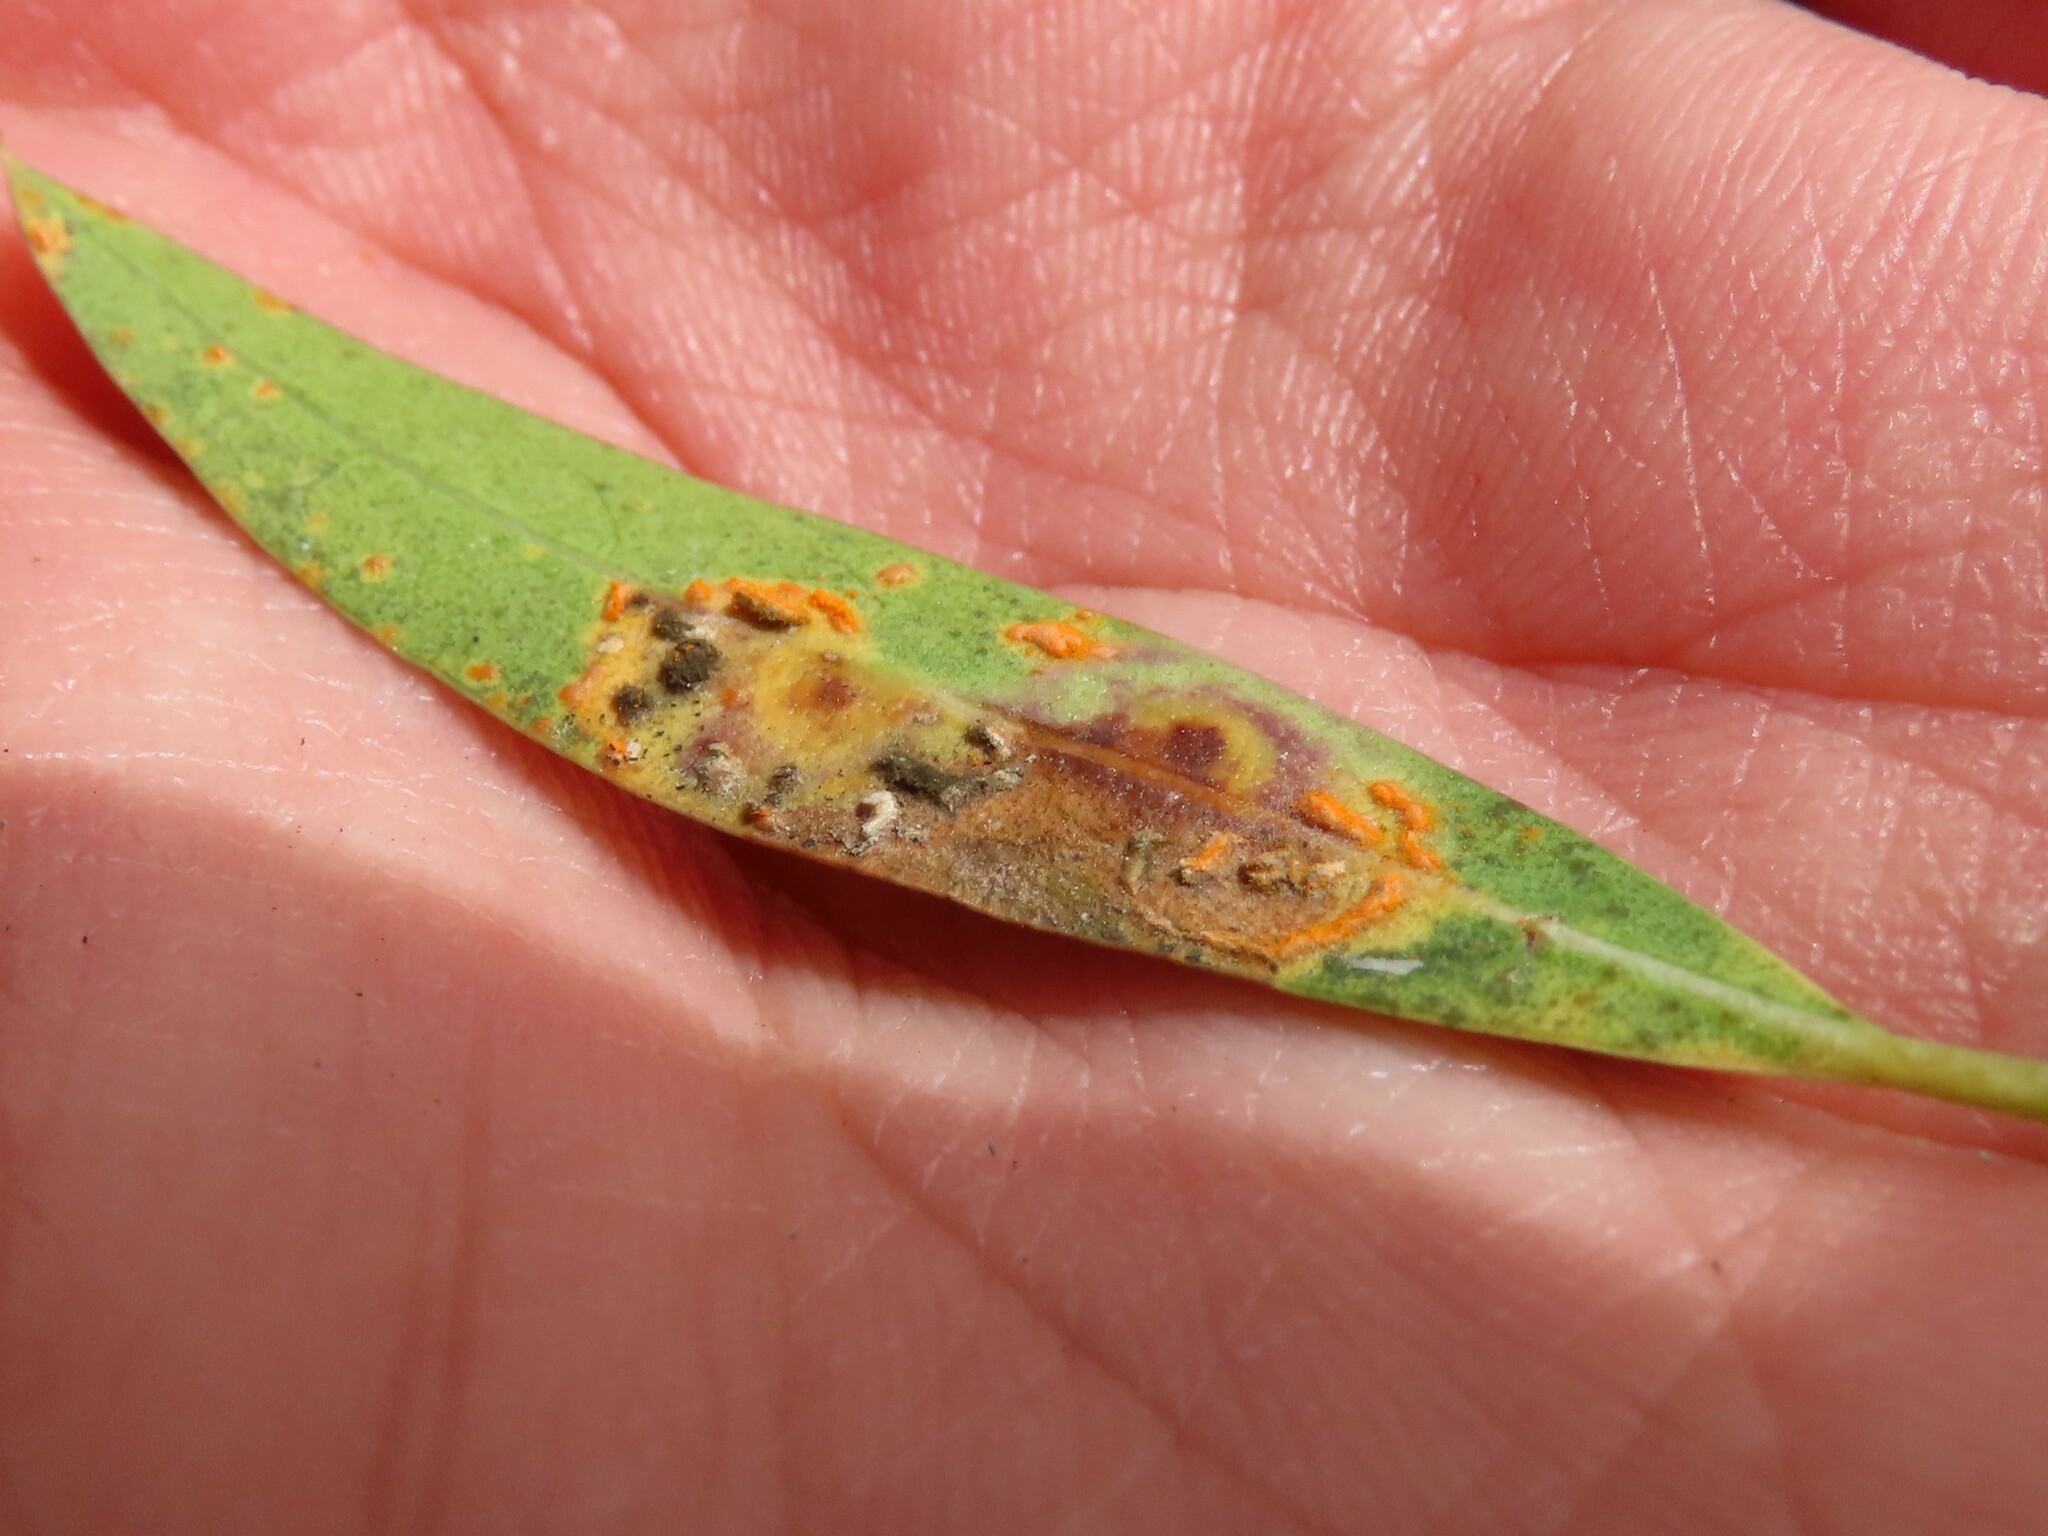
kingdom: Fungi
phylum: Basidiomycota
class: Pucciniomycetes
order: Pucciniales
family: Pucciniaceae
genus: Zaghouania
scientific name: Zaghouania phillyreae
